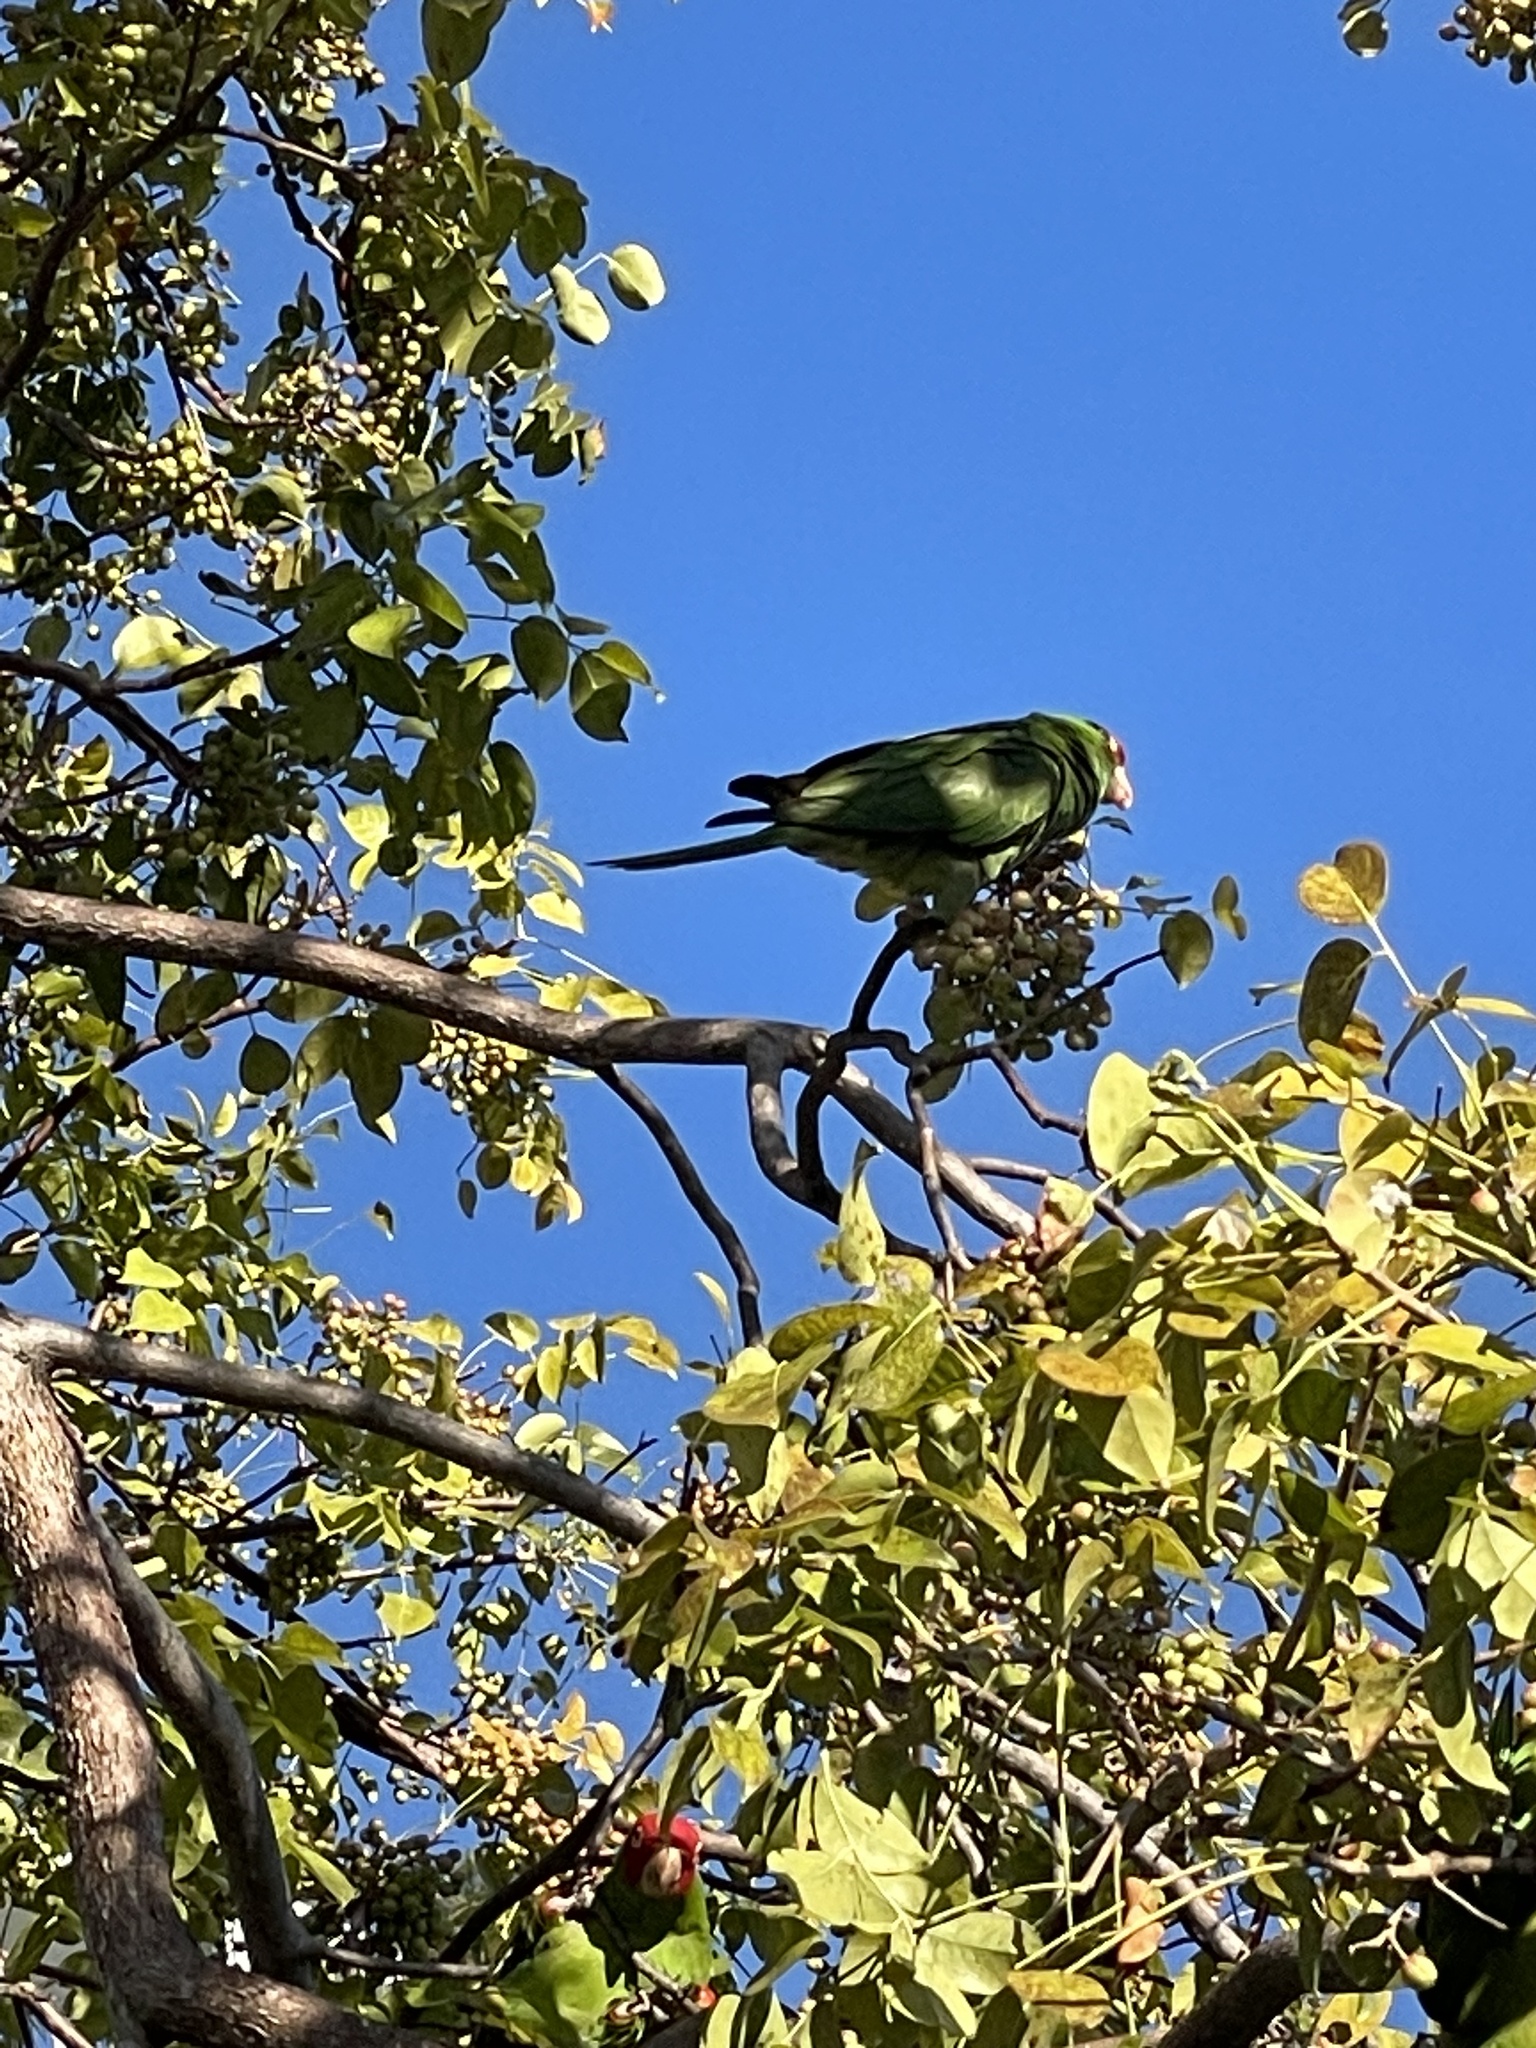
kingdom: Animalia
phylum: Chordata
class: Aves
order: Psittaciformes
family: Psittacidae
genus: Aratinga
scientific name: Aratinga erythrogenys
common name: Red-masked parakeet
